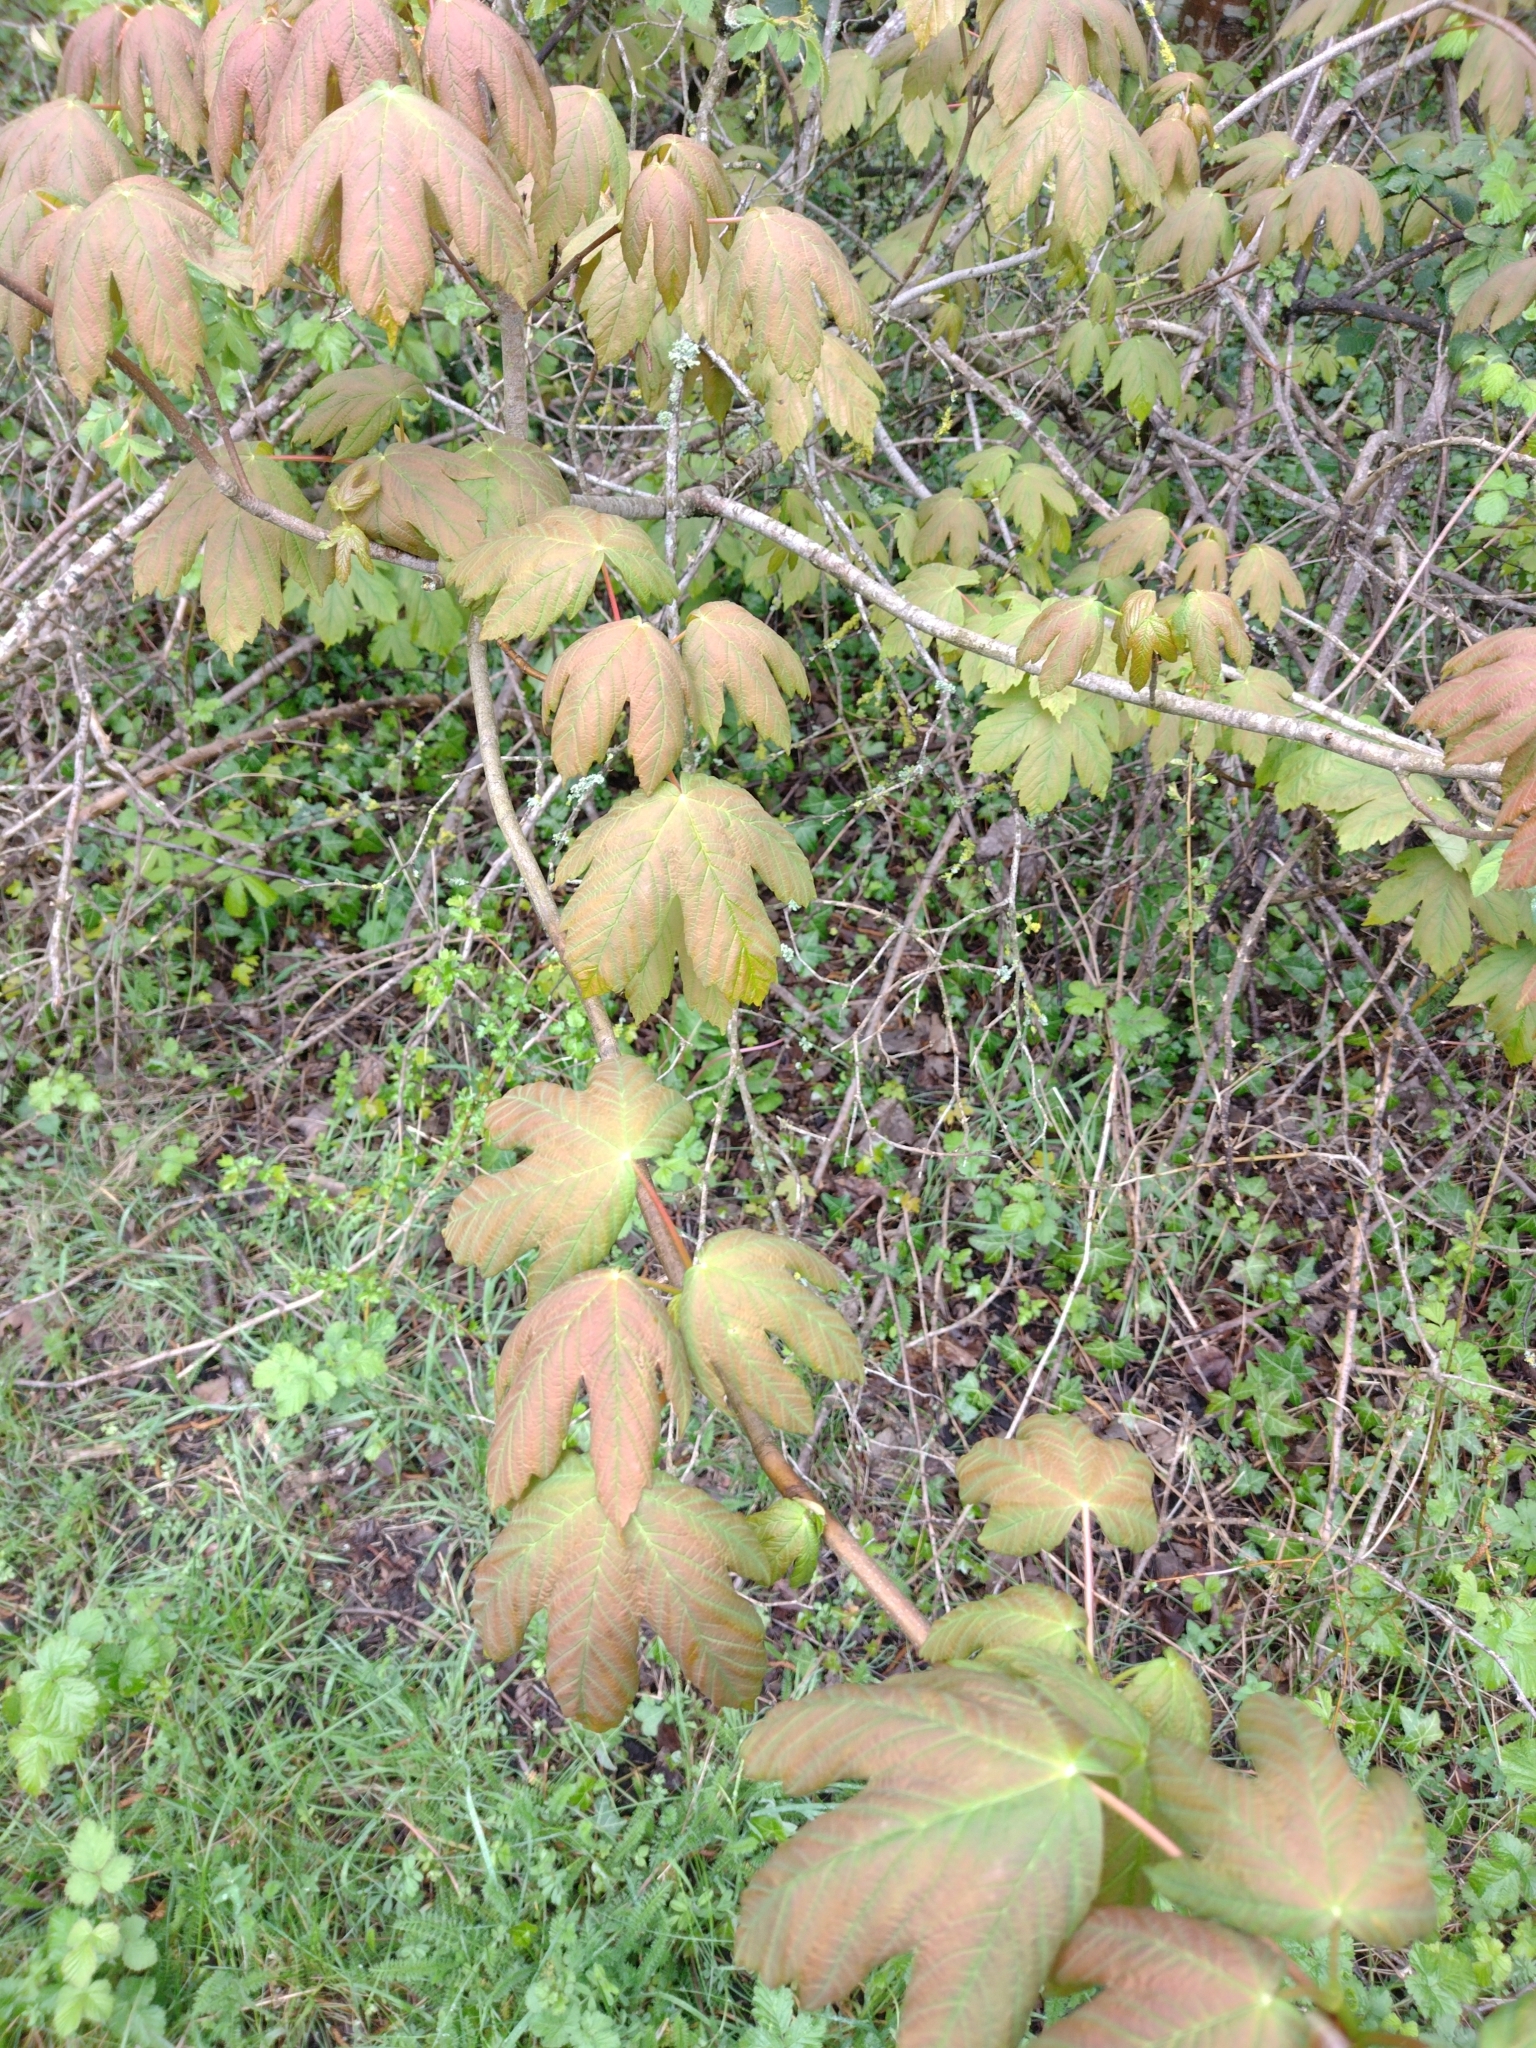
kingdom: Plantae
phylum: Tracheophyta
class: Magnoliopsida
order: Sapindales
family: Sapindaceae
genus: Acer
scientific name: Acer pseudoplatanus
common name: Sycamore
